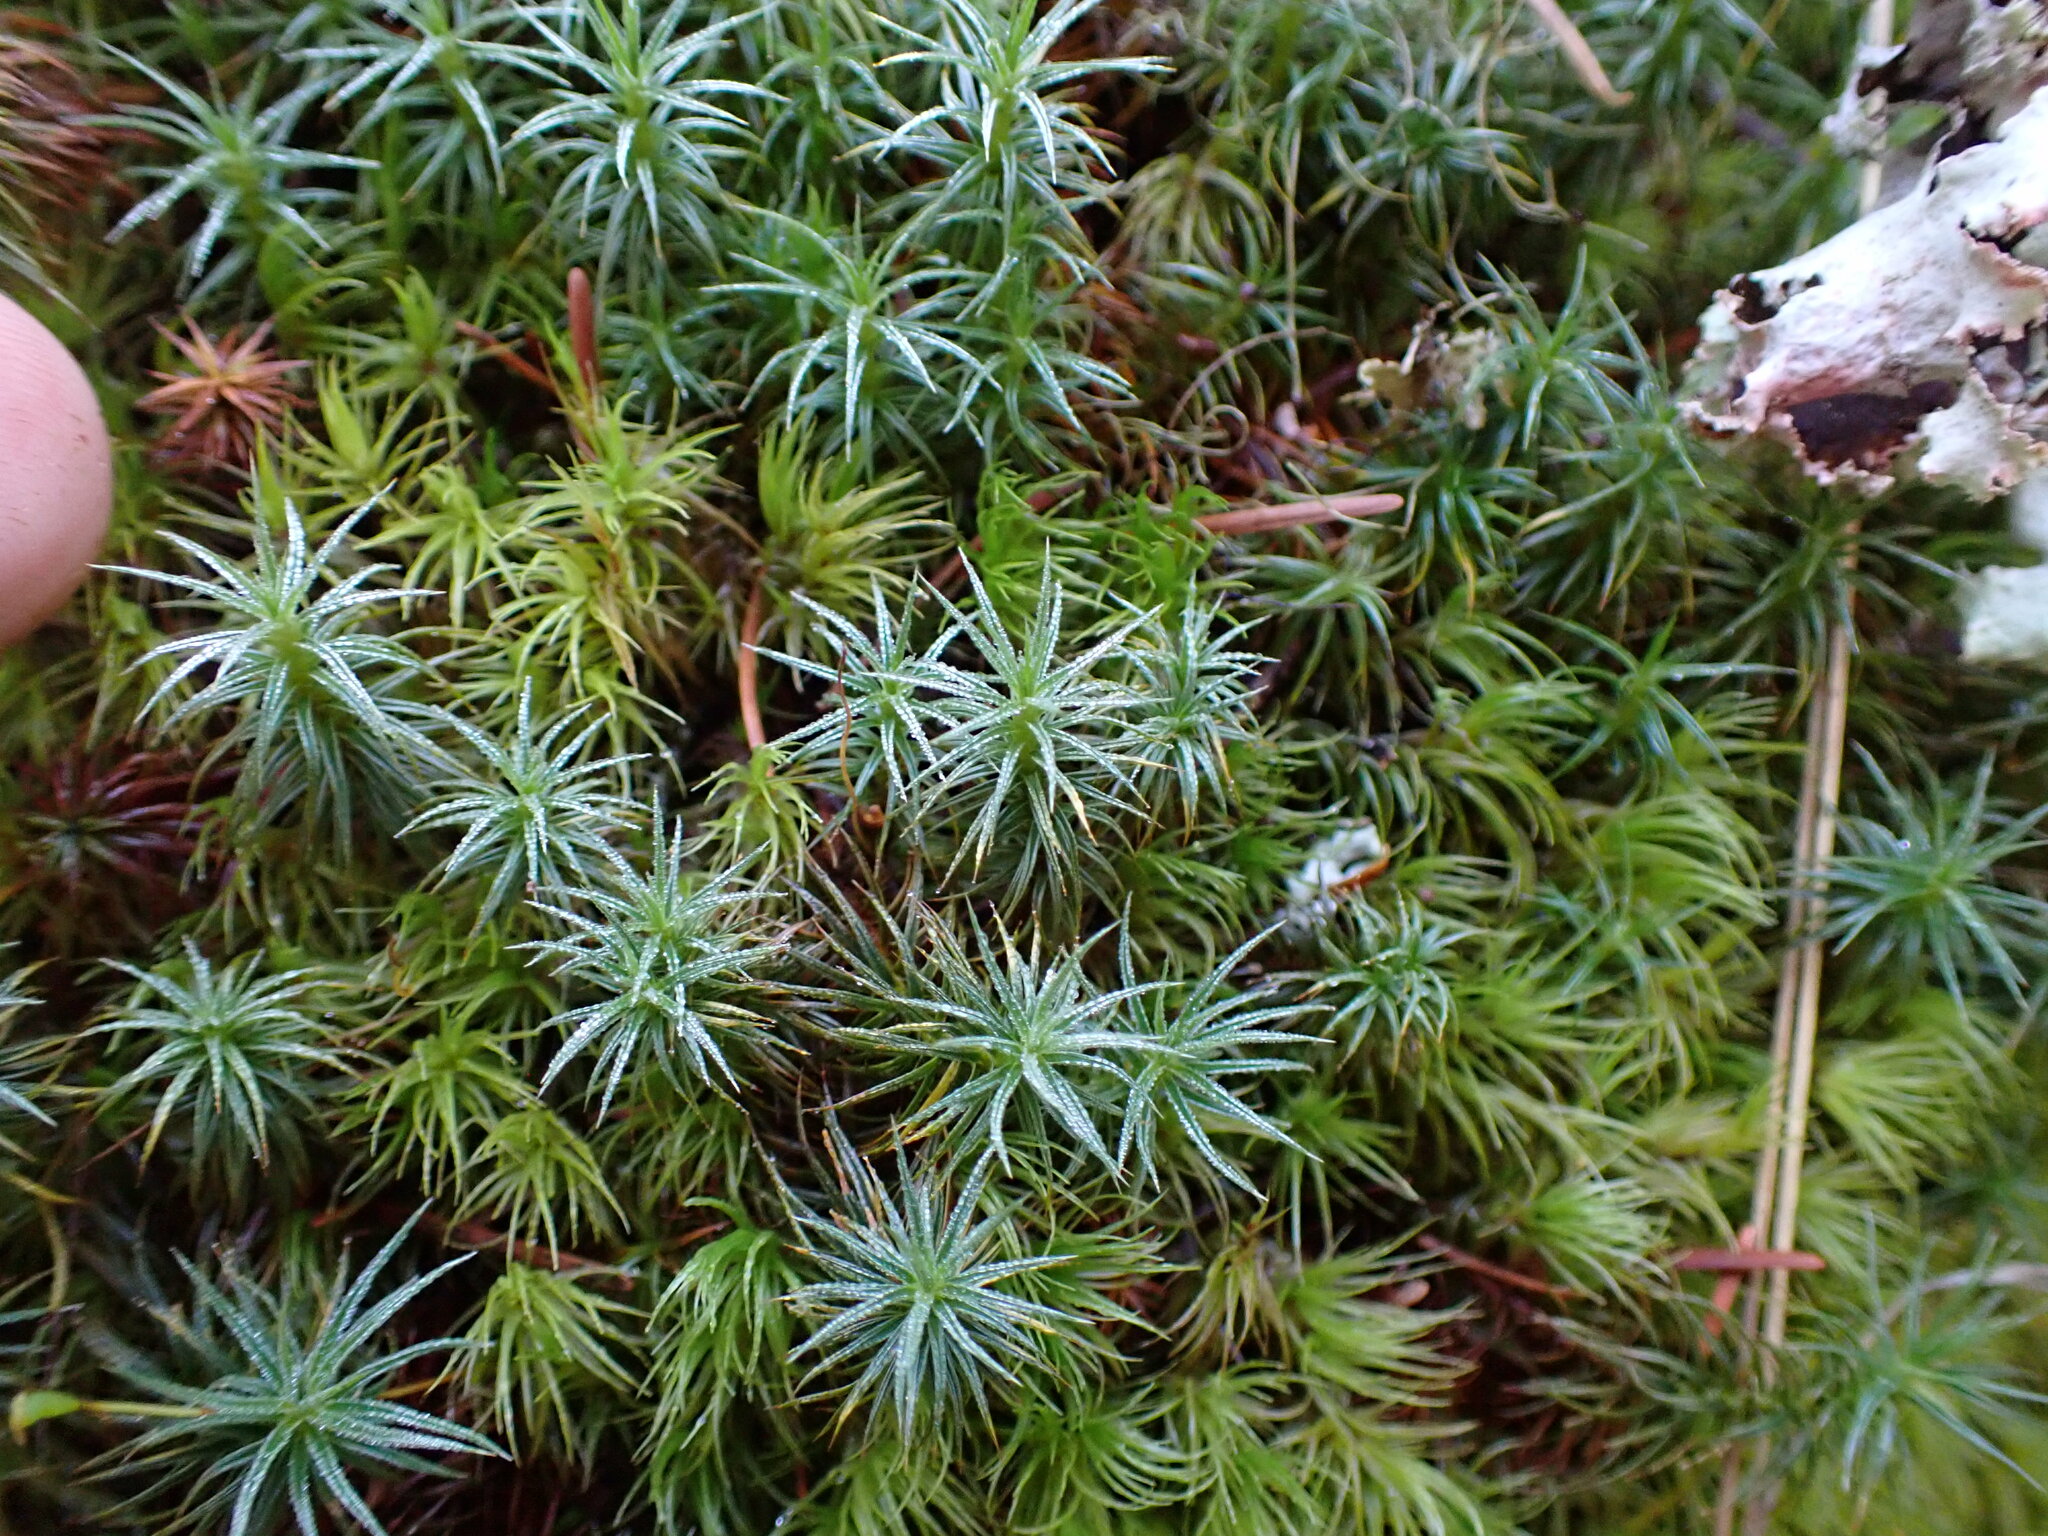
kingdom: Plantae
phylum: Bryophyta
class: Polytrichopsida
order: Polytrichales
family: Polytrichaceae
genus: Polytrichum
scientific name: Polytrichum juniperinum
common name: Juniper haircap moss
